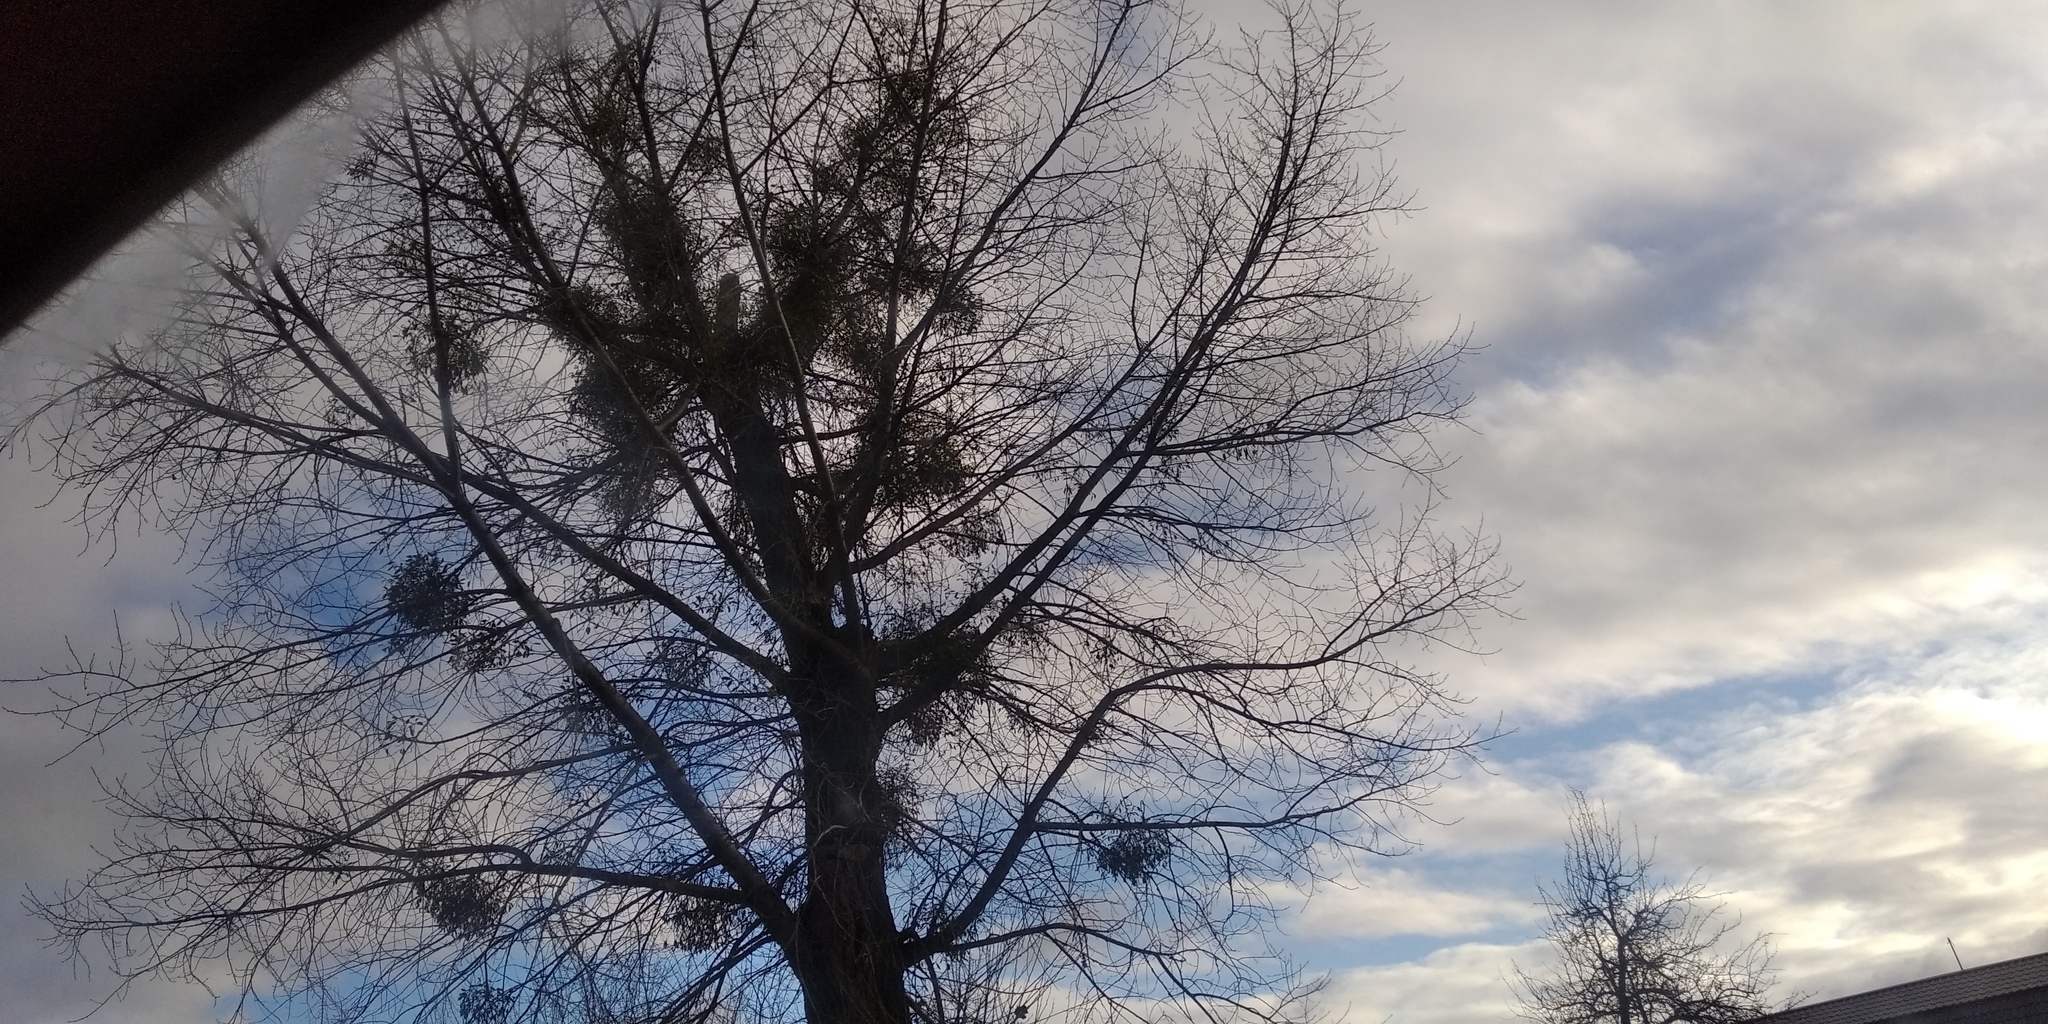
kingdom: Plantae
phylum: Tracheophyta
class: Magnoliopsida
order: Santalales
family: Viscaceae
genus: Viscum
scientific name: Viscum album
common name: Mistletoe
